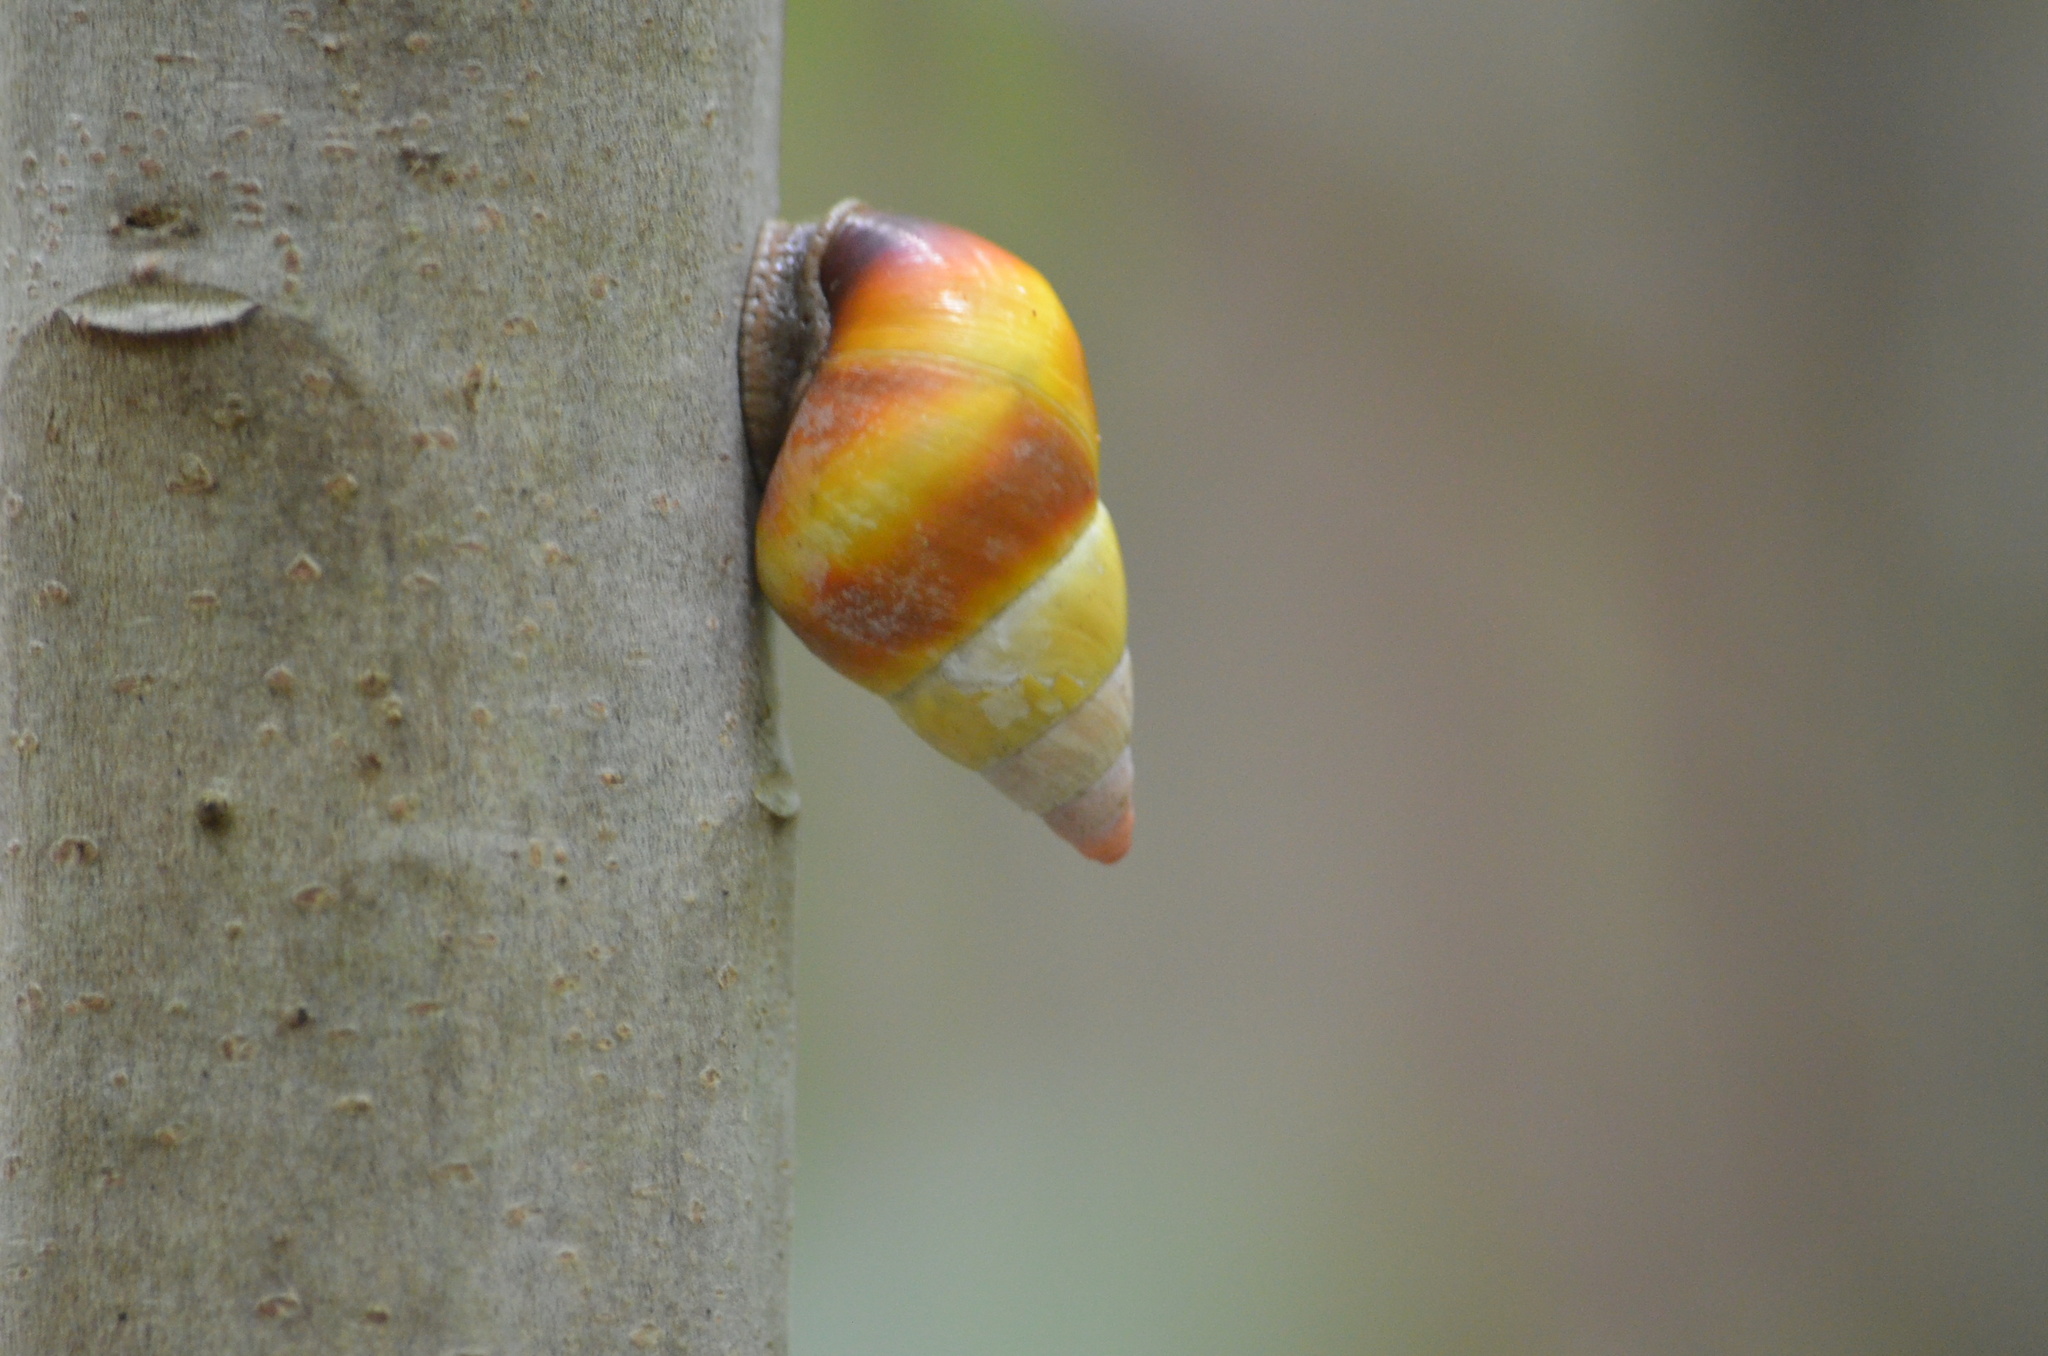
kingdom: Animalia
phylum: Mollusca
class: Gastropoda
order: Stylommatophora
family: Orthalicidae
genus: Liguus
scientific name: Liguus fasciatus
